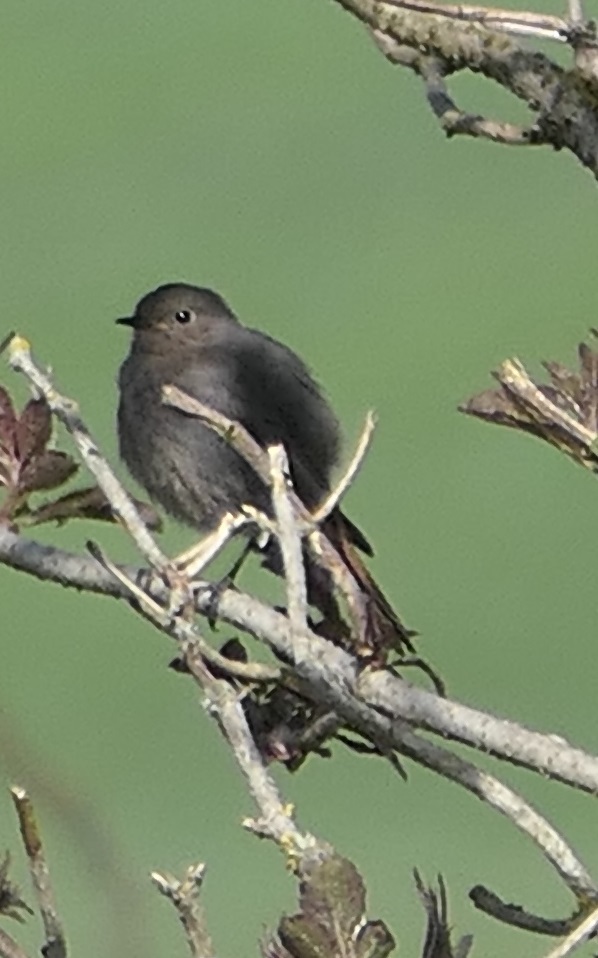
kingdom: Animalia
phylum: Chordata
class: Aves
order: Passeriformes
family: Muscicapidae
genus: Phoenicurus
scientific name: Phoenicurus ochruros
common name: Black redstart
